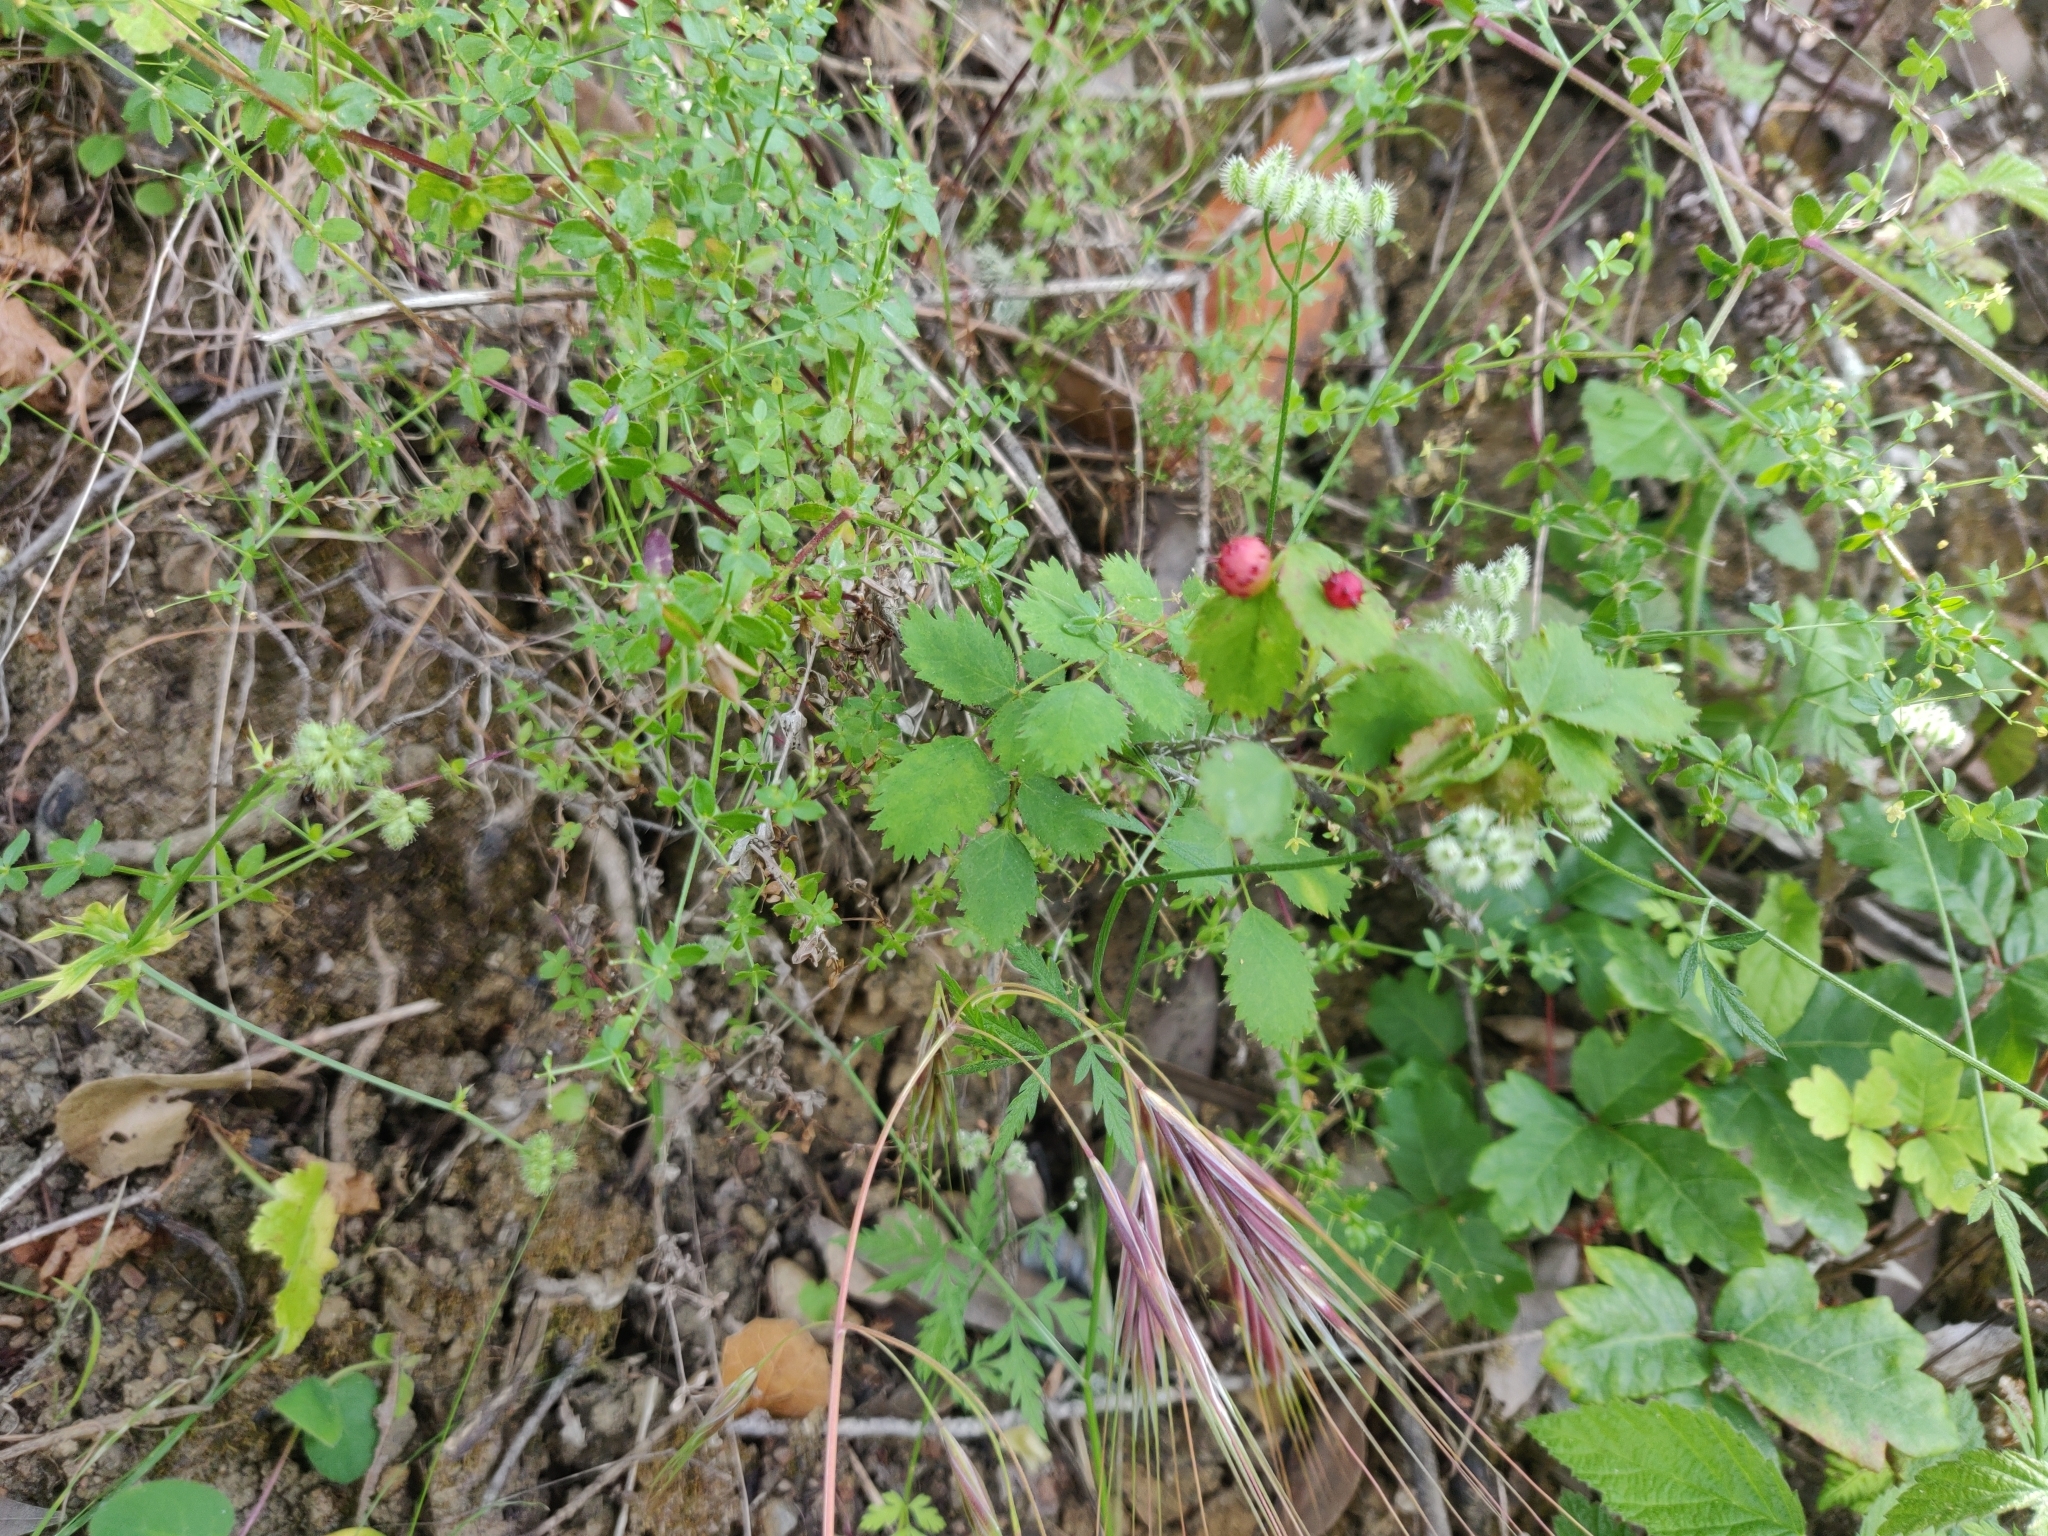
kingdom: Animalia
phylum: Arthropoda
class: Insecta
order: Hymenoptera
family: Cynipidae
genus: Diplolepis
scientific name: Diplolepis polita
